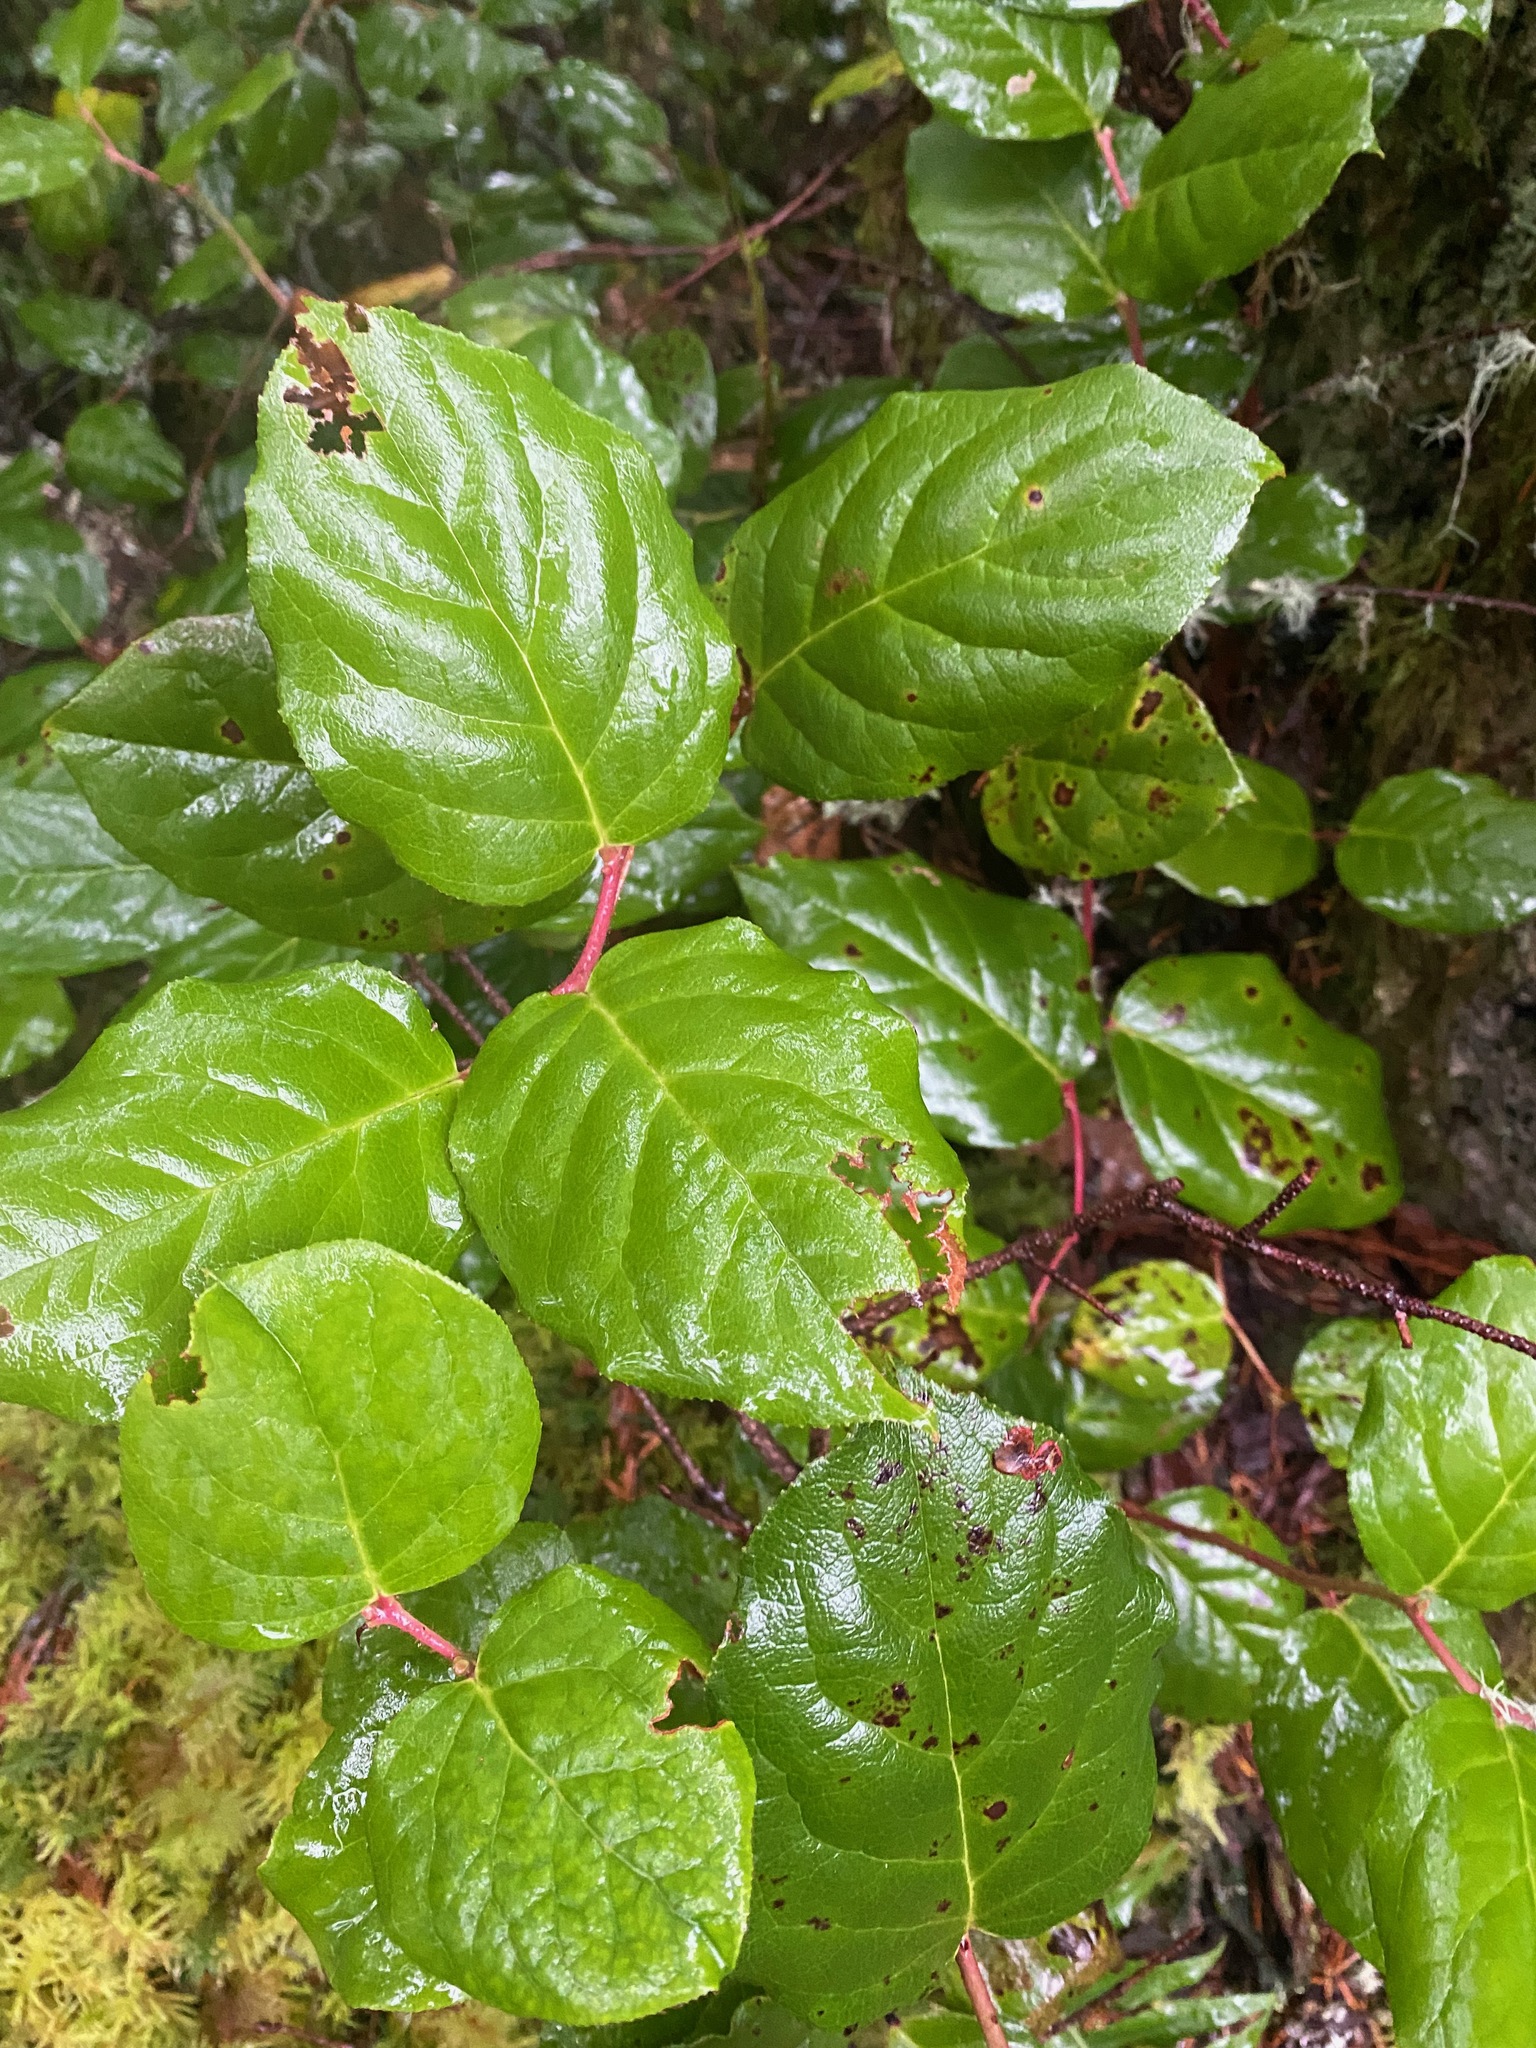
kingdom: Plantae
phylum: Tracheophyta
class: Magnoliopsida
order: Ericales
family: Ericaceae
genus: Gaultheria
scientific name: Gaultheria shallon
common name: Shallon
